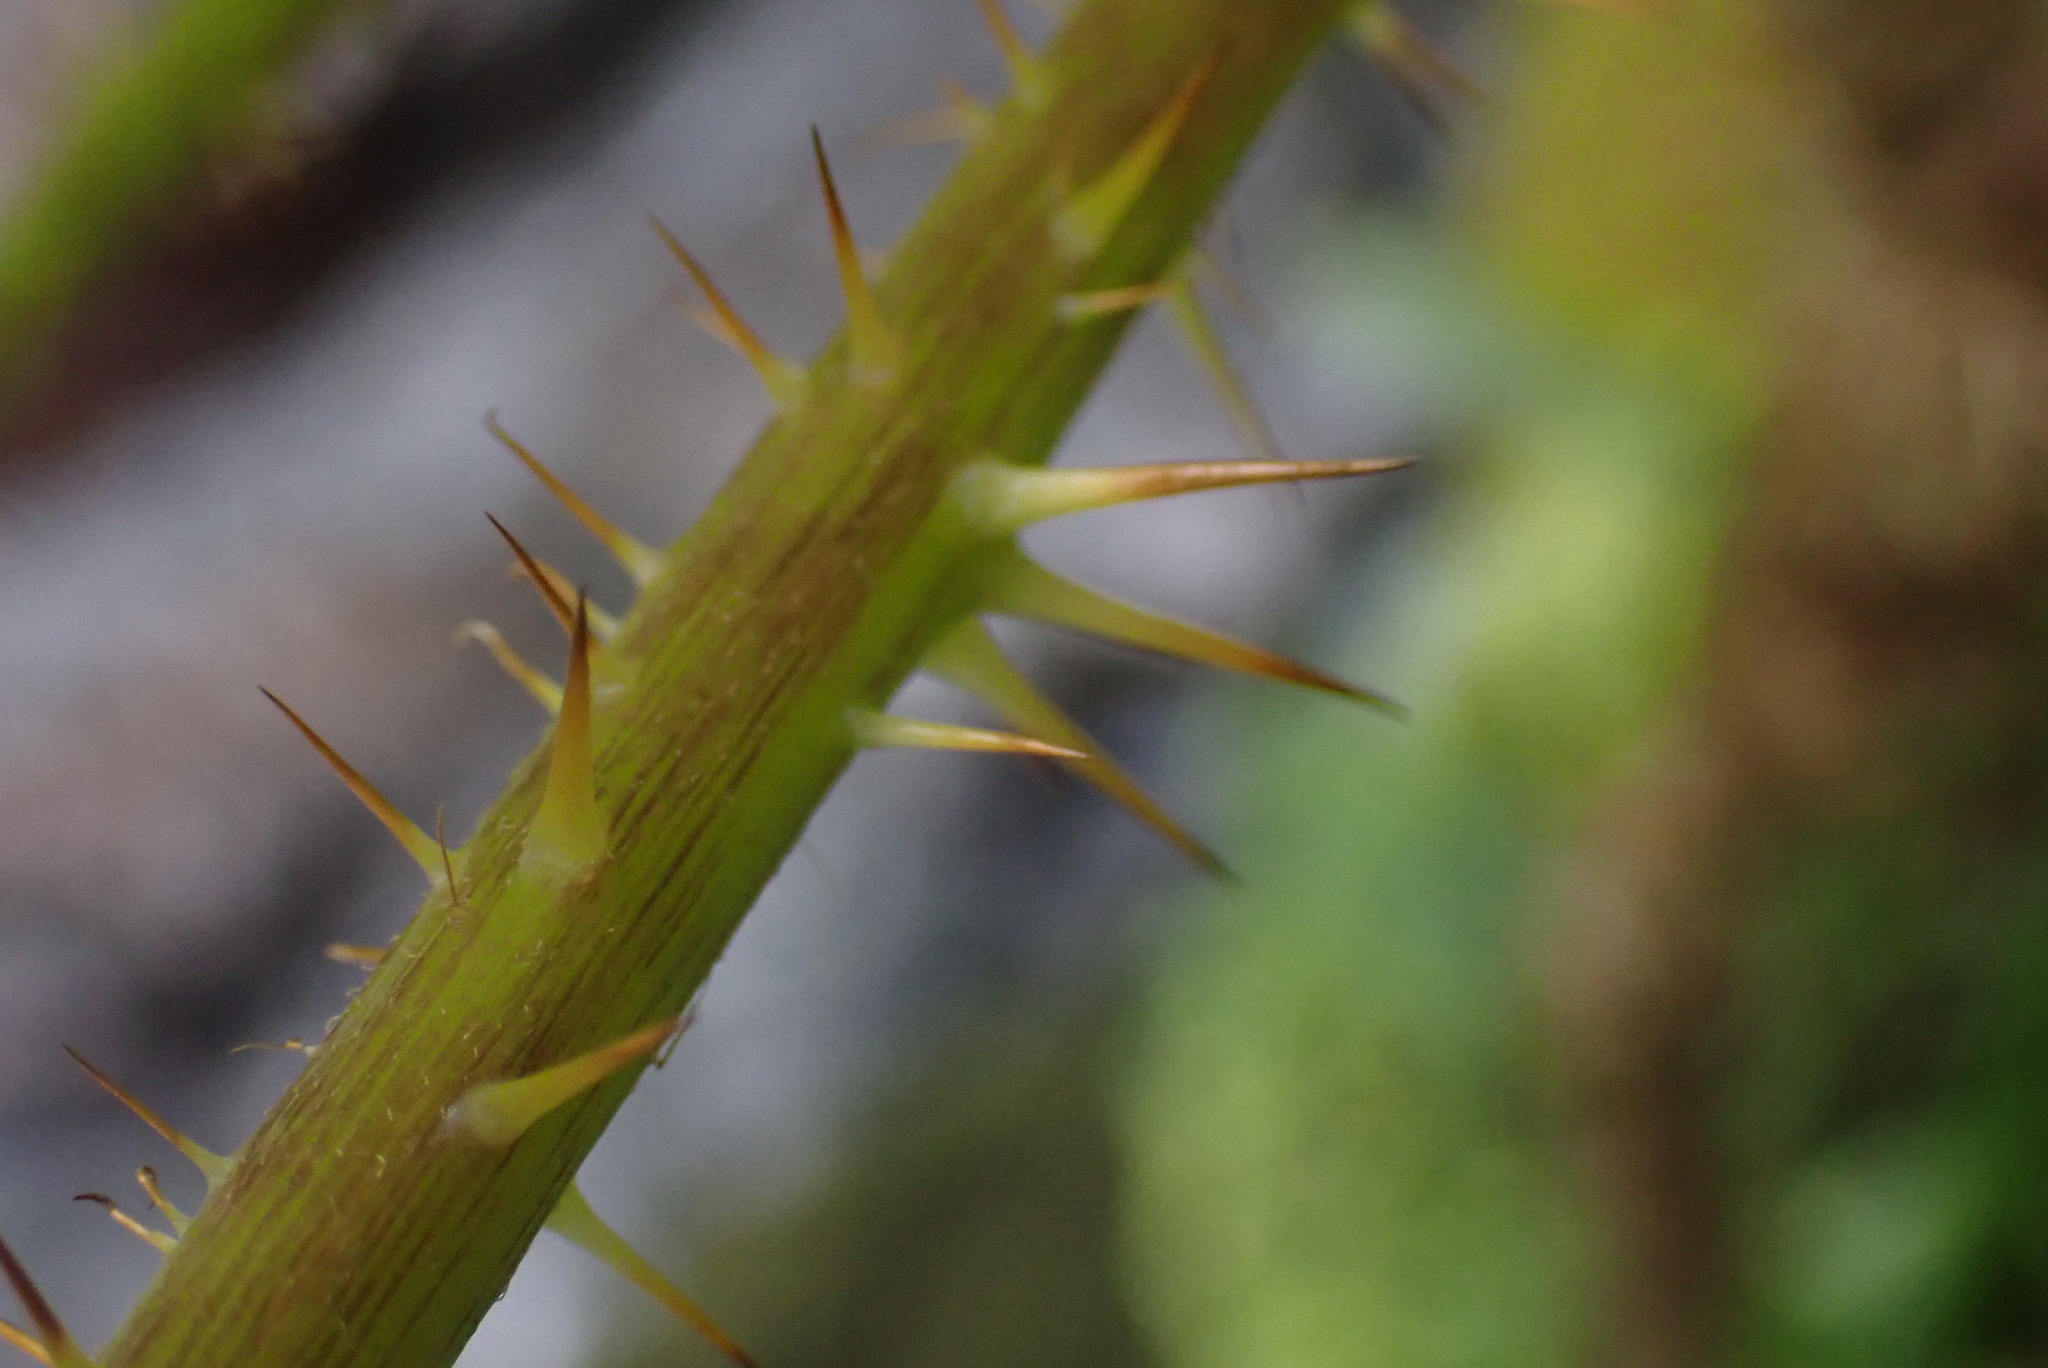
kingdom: Plantae
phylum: Tracheophyta
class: Magnoliopsida
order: Apiales
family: Araliaceae
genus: Oplopanax
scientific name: Oplopanax horridus
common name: Devil's walking-stick
